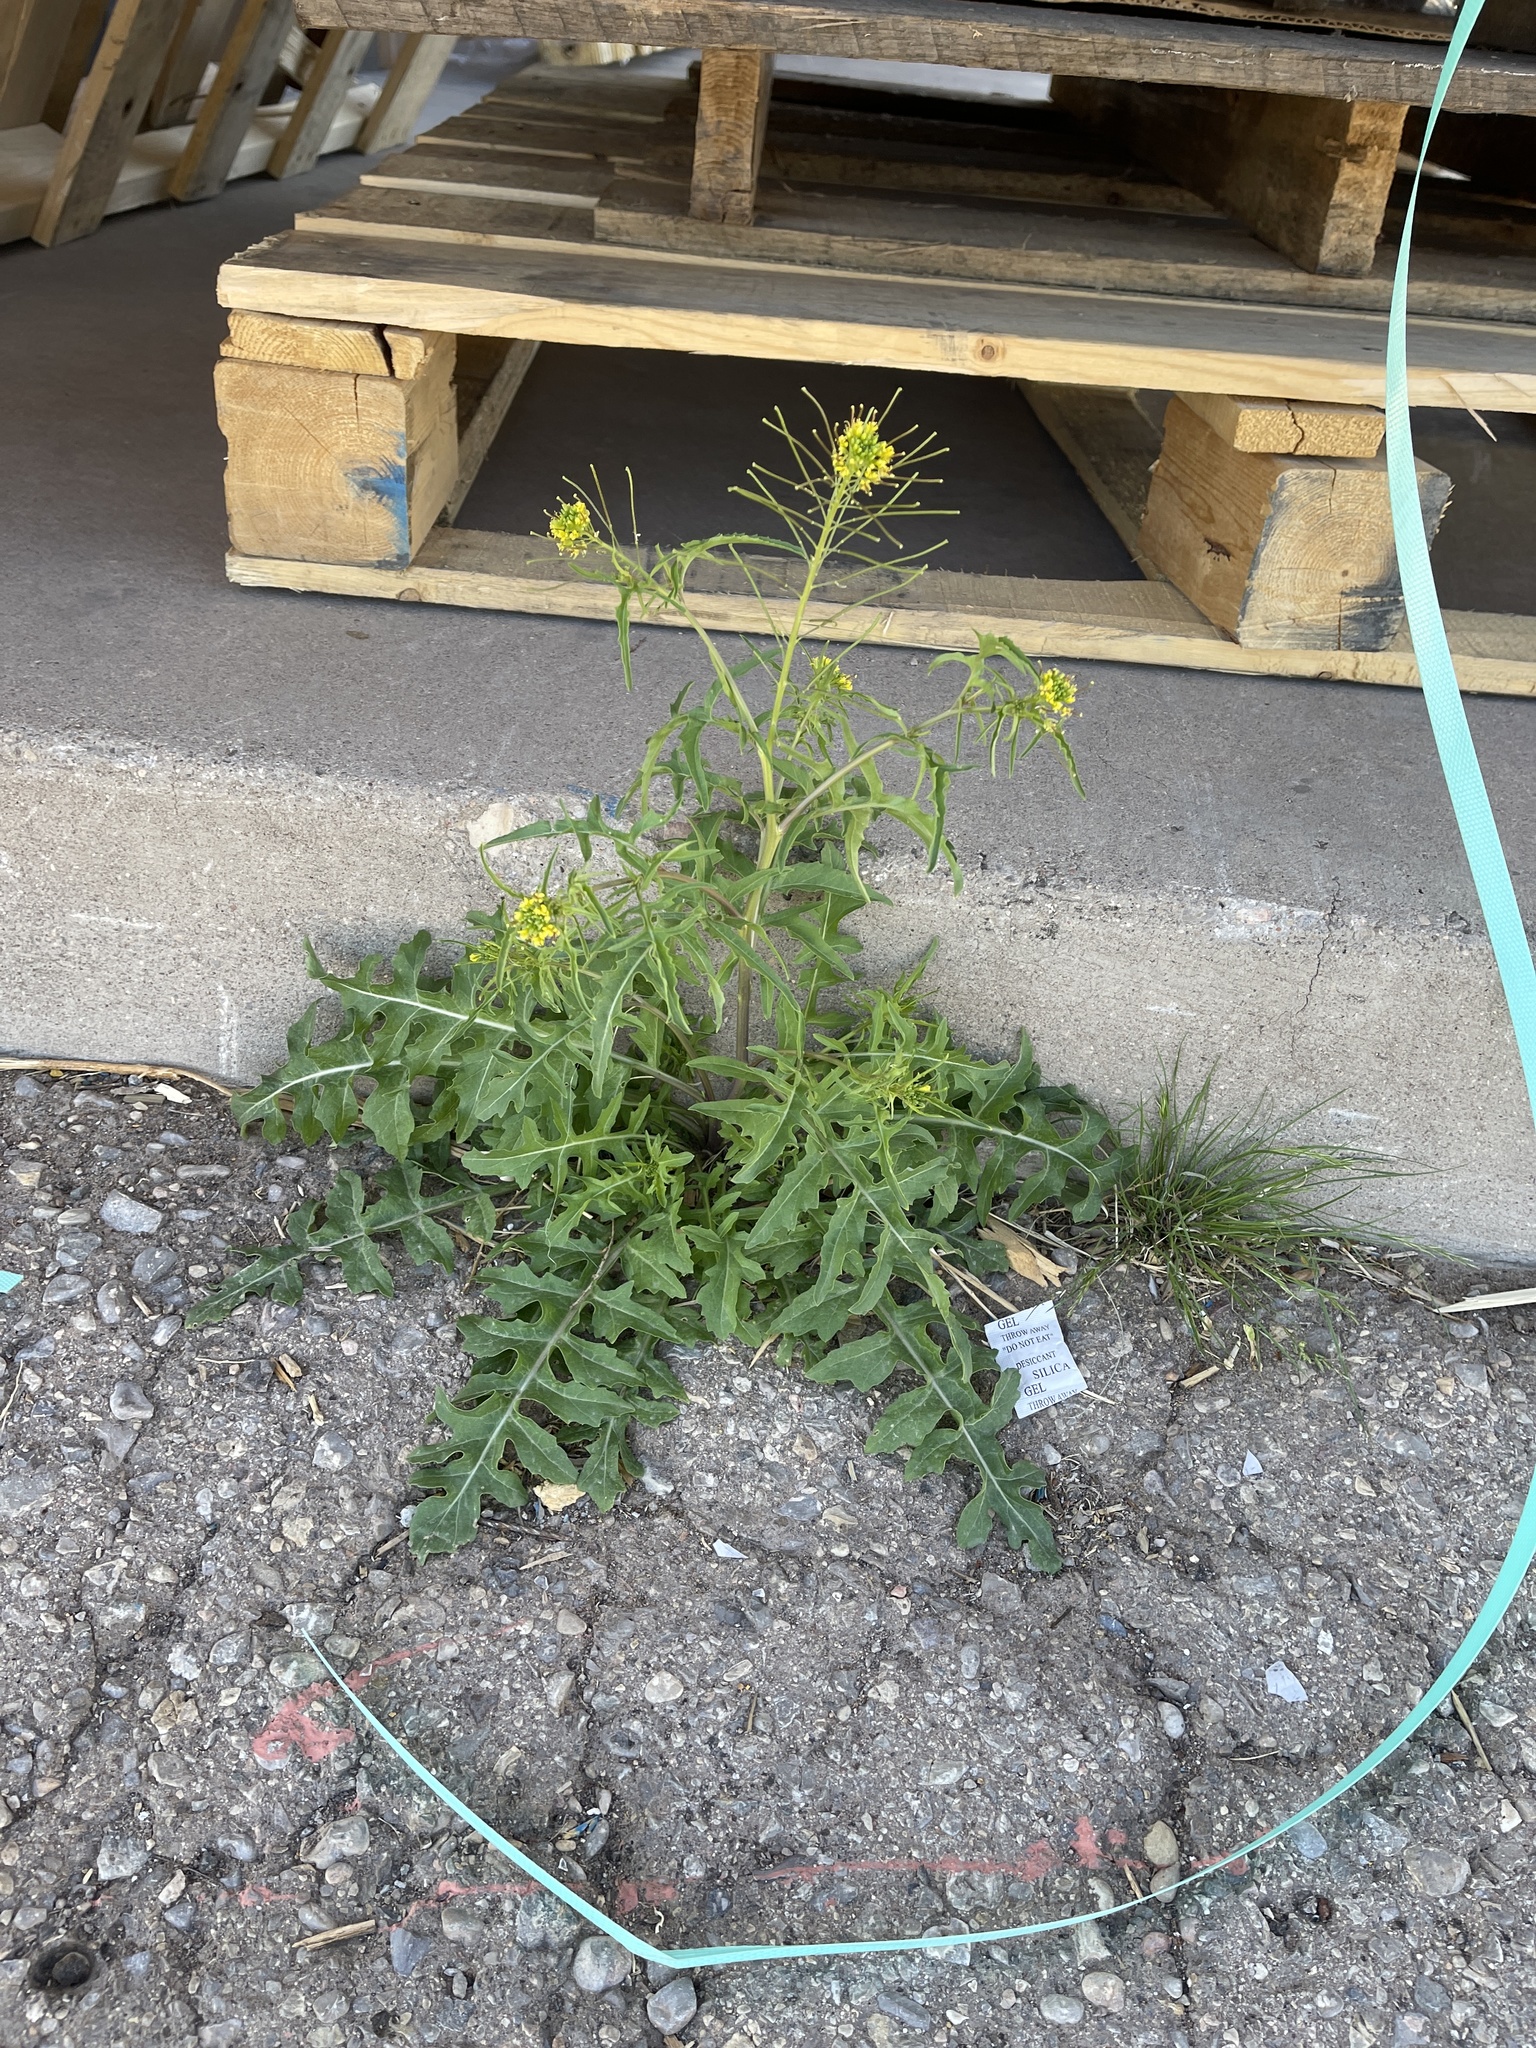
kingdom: Plantae
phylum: Tracheophyta
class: Magnoliopsida
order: Brassicales
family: Brassicaceae
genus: Sisymbrium
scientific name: Sisymbrium irio
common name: London rocket
